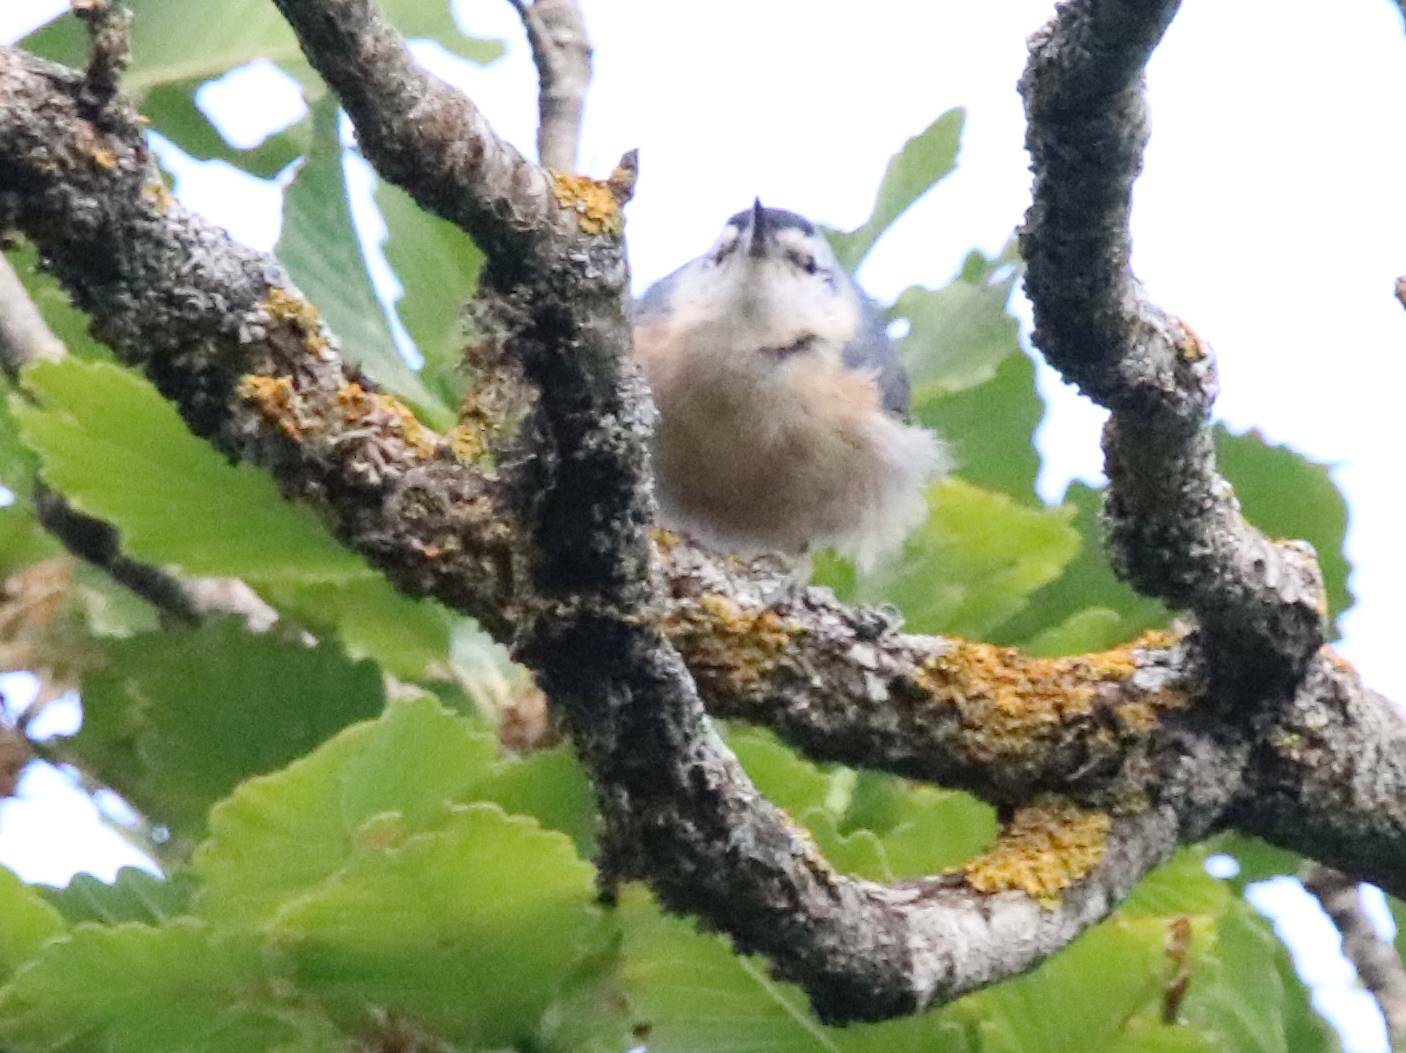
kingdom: Animalia
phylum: Chordata
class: Aves
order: Passeriformes
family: Sittidae
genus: Sitta
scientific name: Sitta ledanti
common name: Algerian nuthatch
